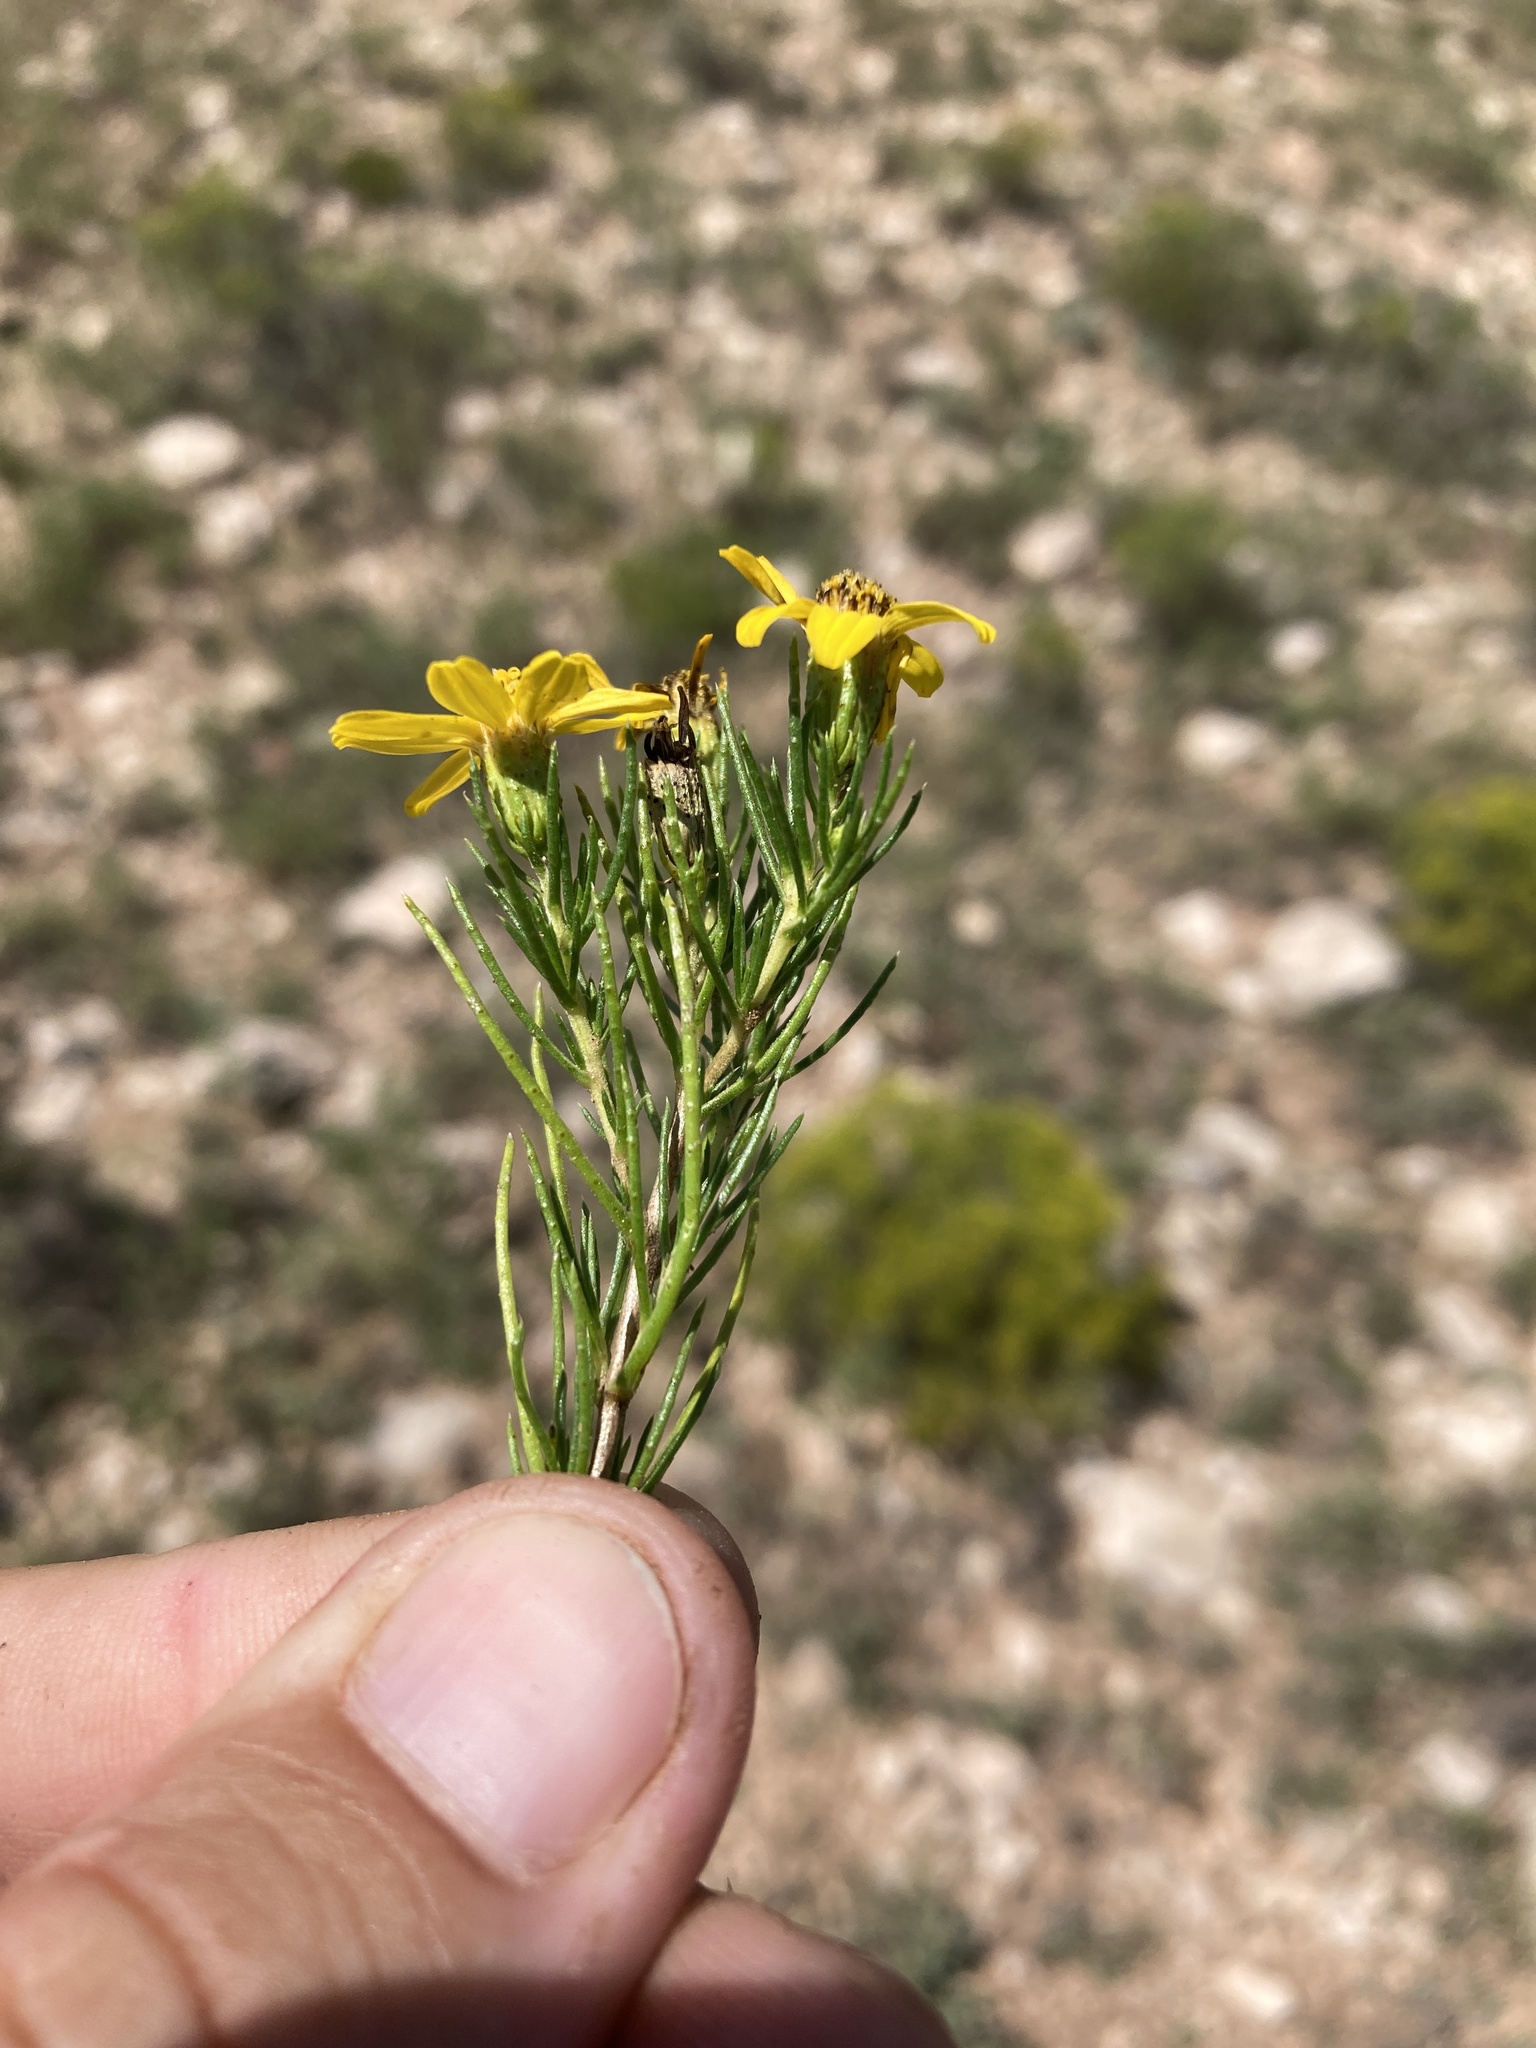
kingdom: Plantae
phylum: Tracheophyta
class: Magnoliopsida
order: Asterales
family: Asteraceae
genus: Thymophylla
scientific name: Thymophylla acerosa
